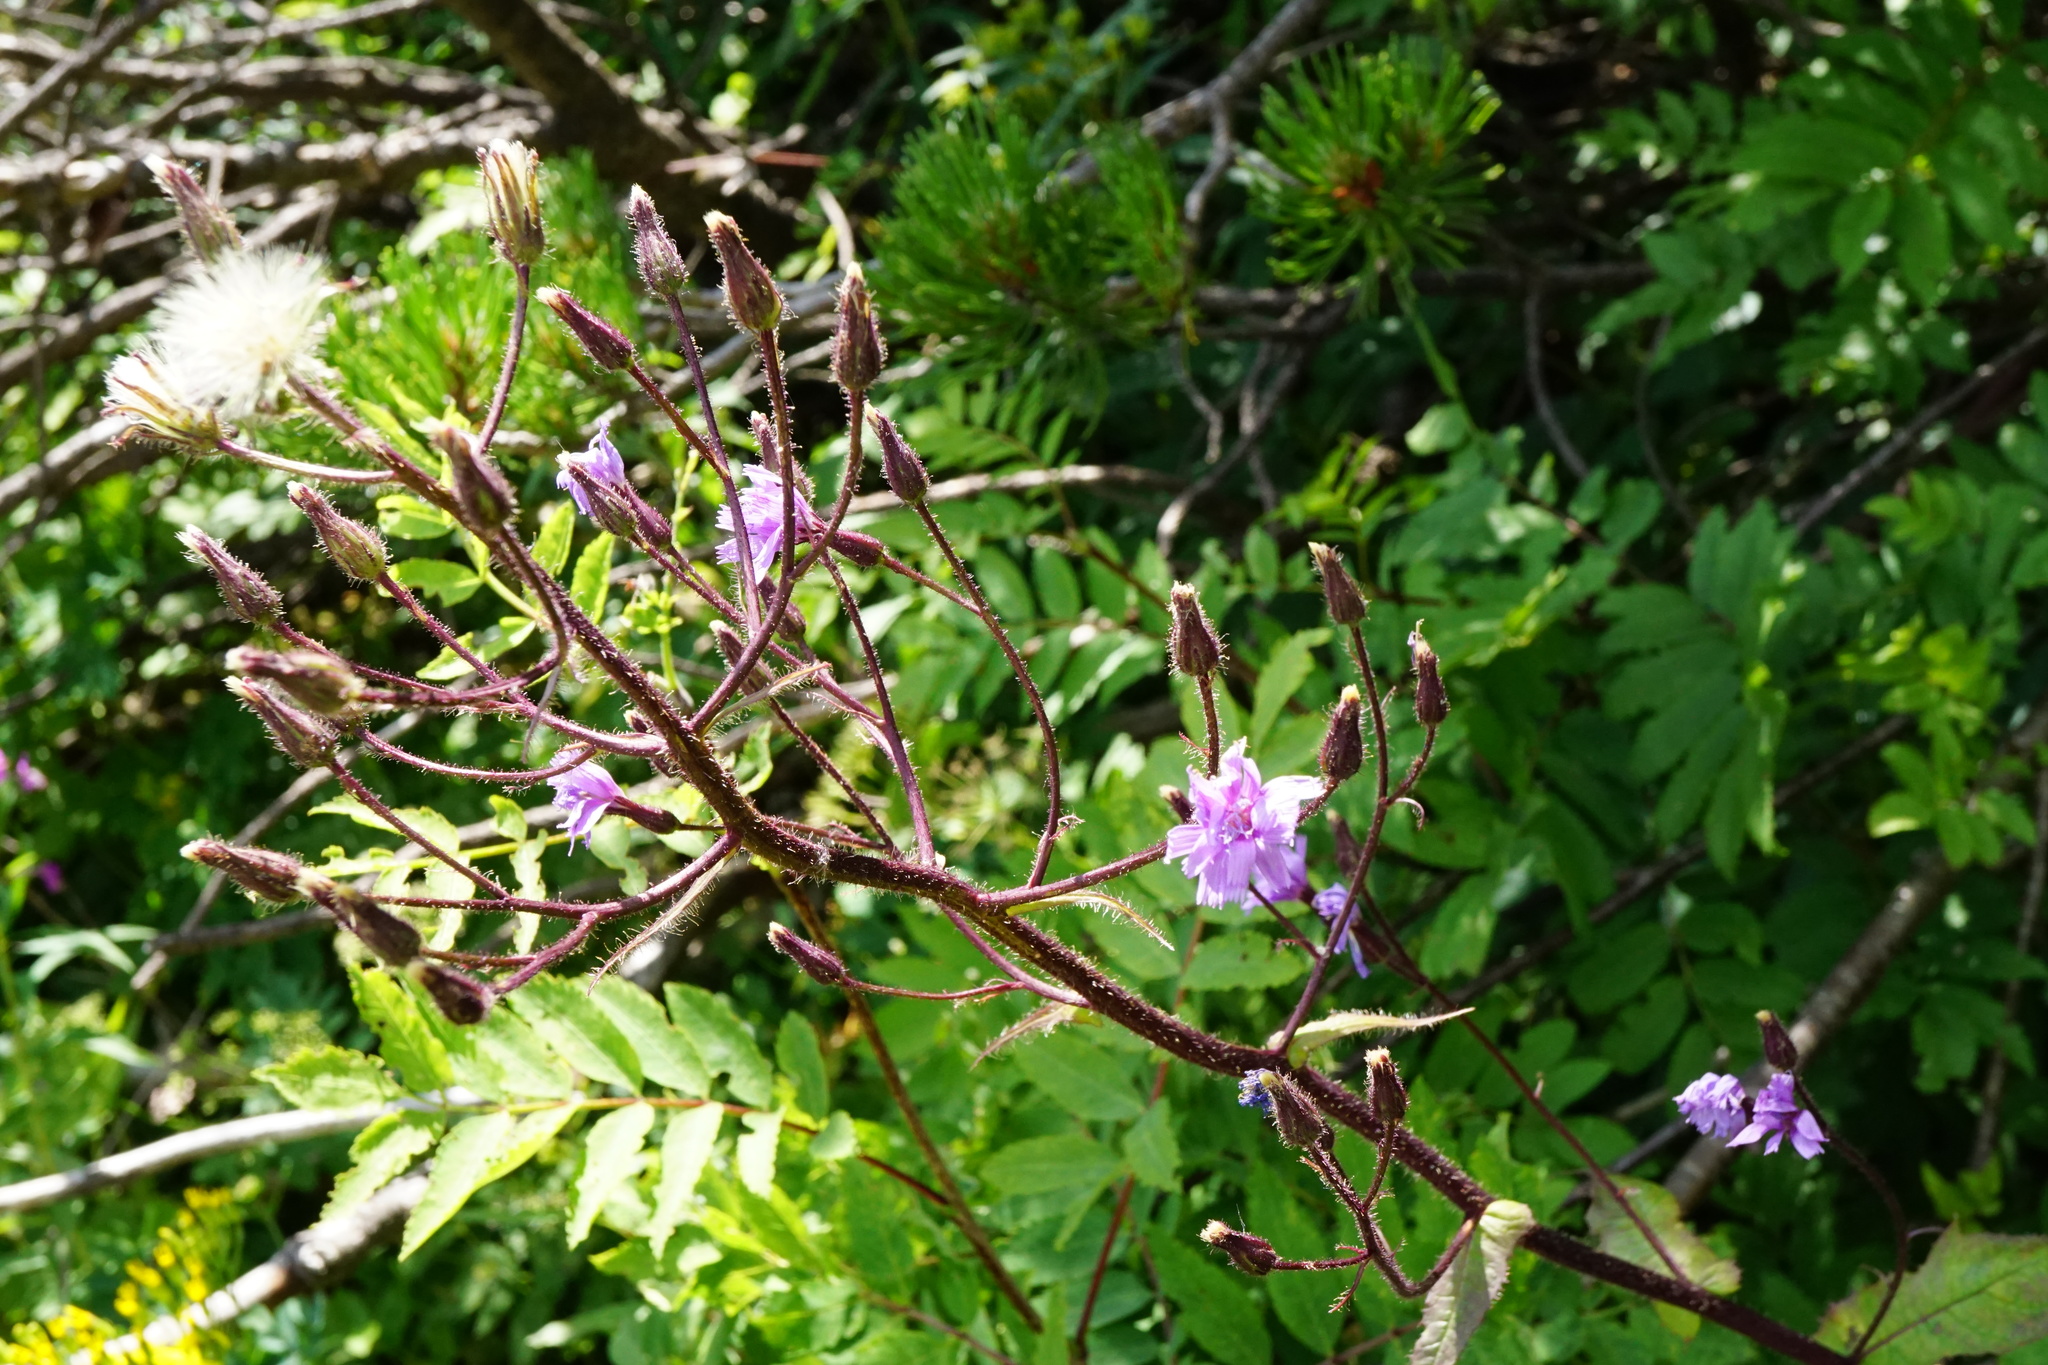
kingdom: Plantae
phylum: Tracheophyta
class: Magnoliopsida
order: Asterales
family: Asteraceae
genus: Cicerbita
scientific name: Cicerbita alpina
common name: Alpine blue-sow-thistle
